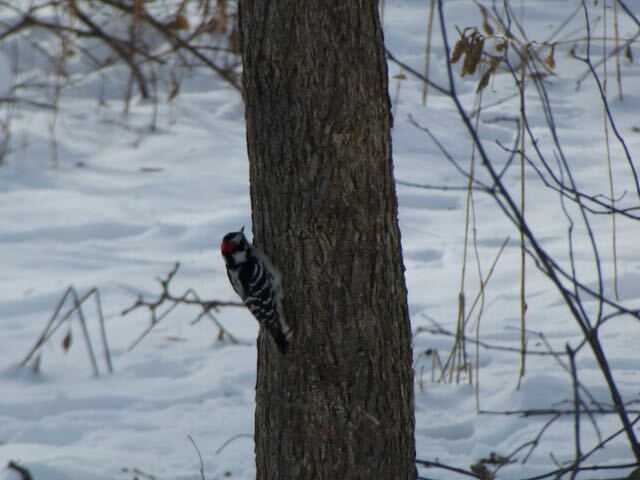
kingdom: Animalia
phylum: Chordata
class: Aves
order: Piciformes
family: Picidae
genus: Dryobates
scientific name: Dryobates pubescens
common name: Downy woodpecker
